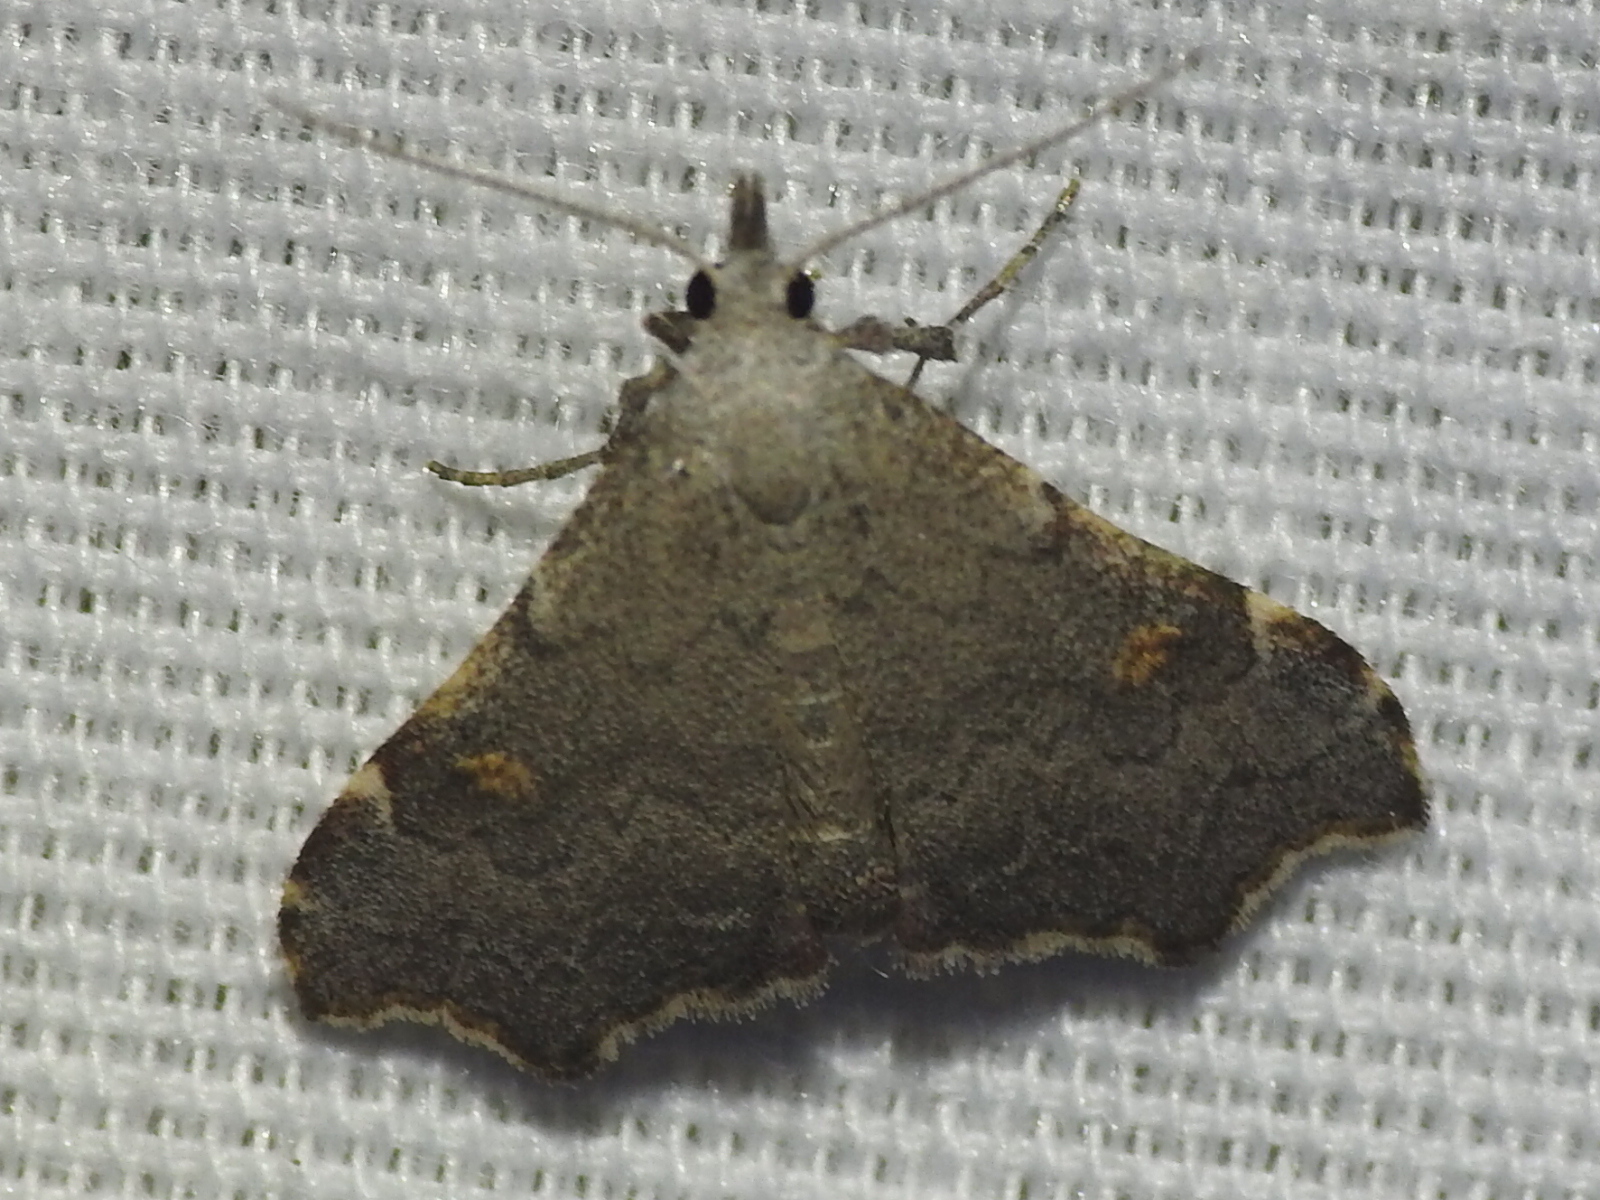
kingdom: Animalia
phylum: Arthropoda
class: Insecta
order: Lepidoptera
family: Erebidae
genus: Redectis
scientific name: Redectis pygmaea
